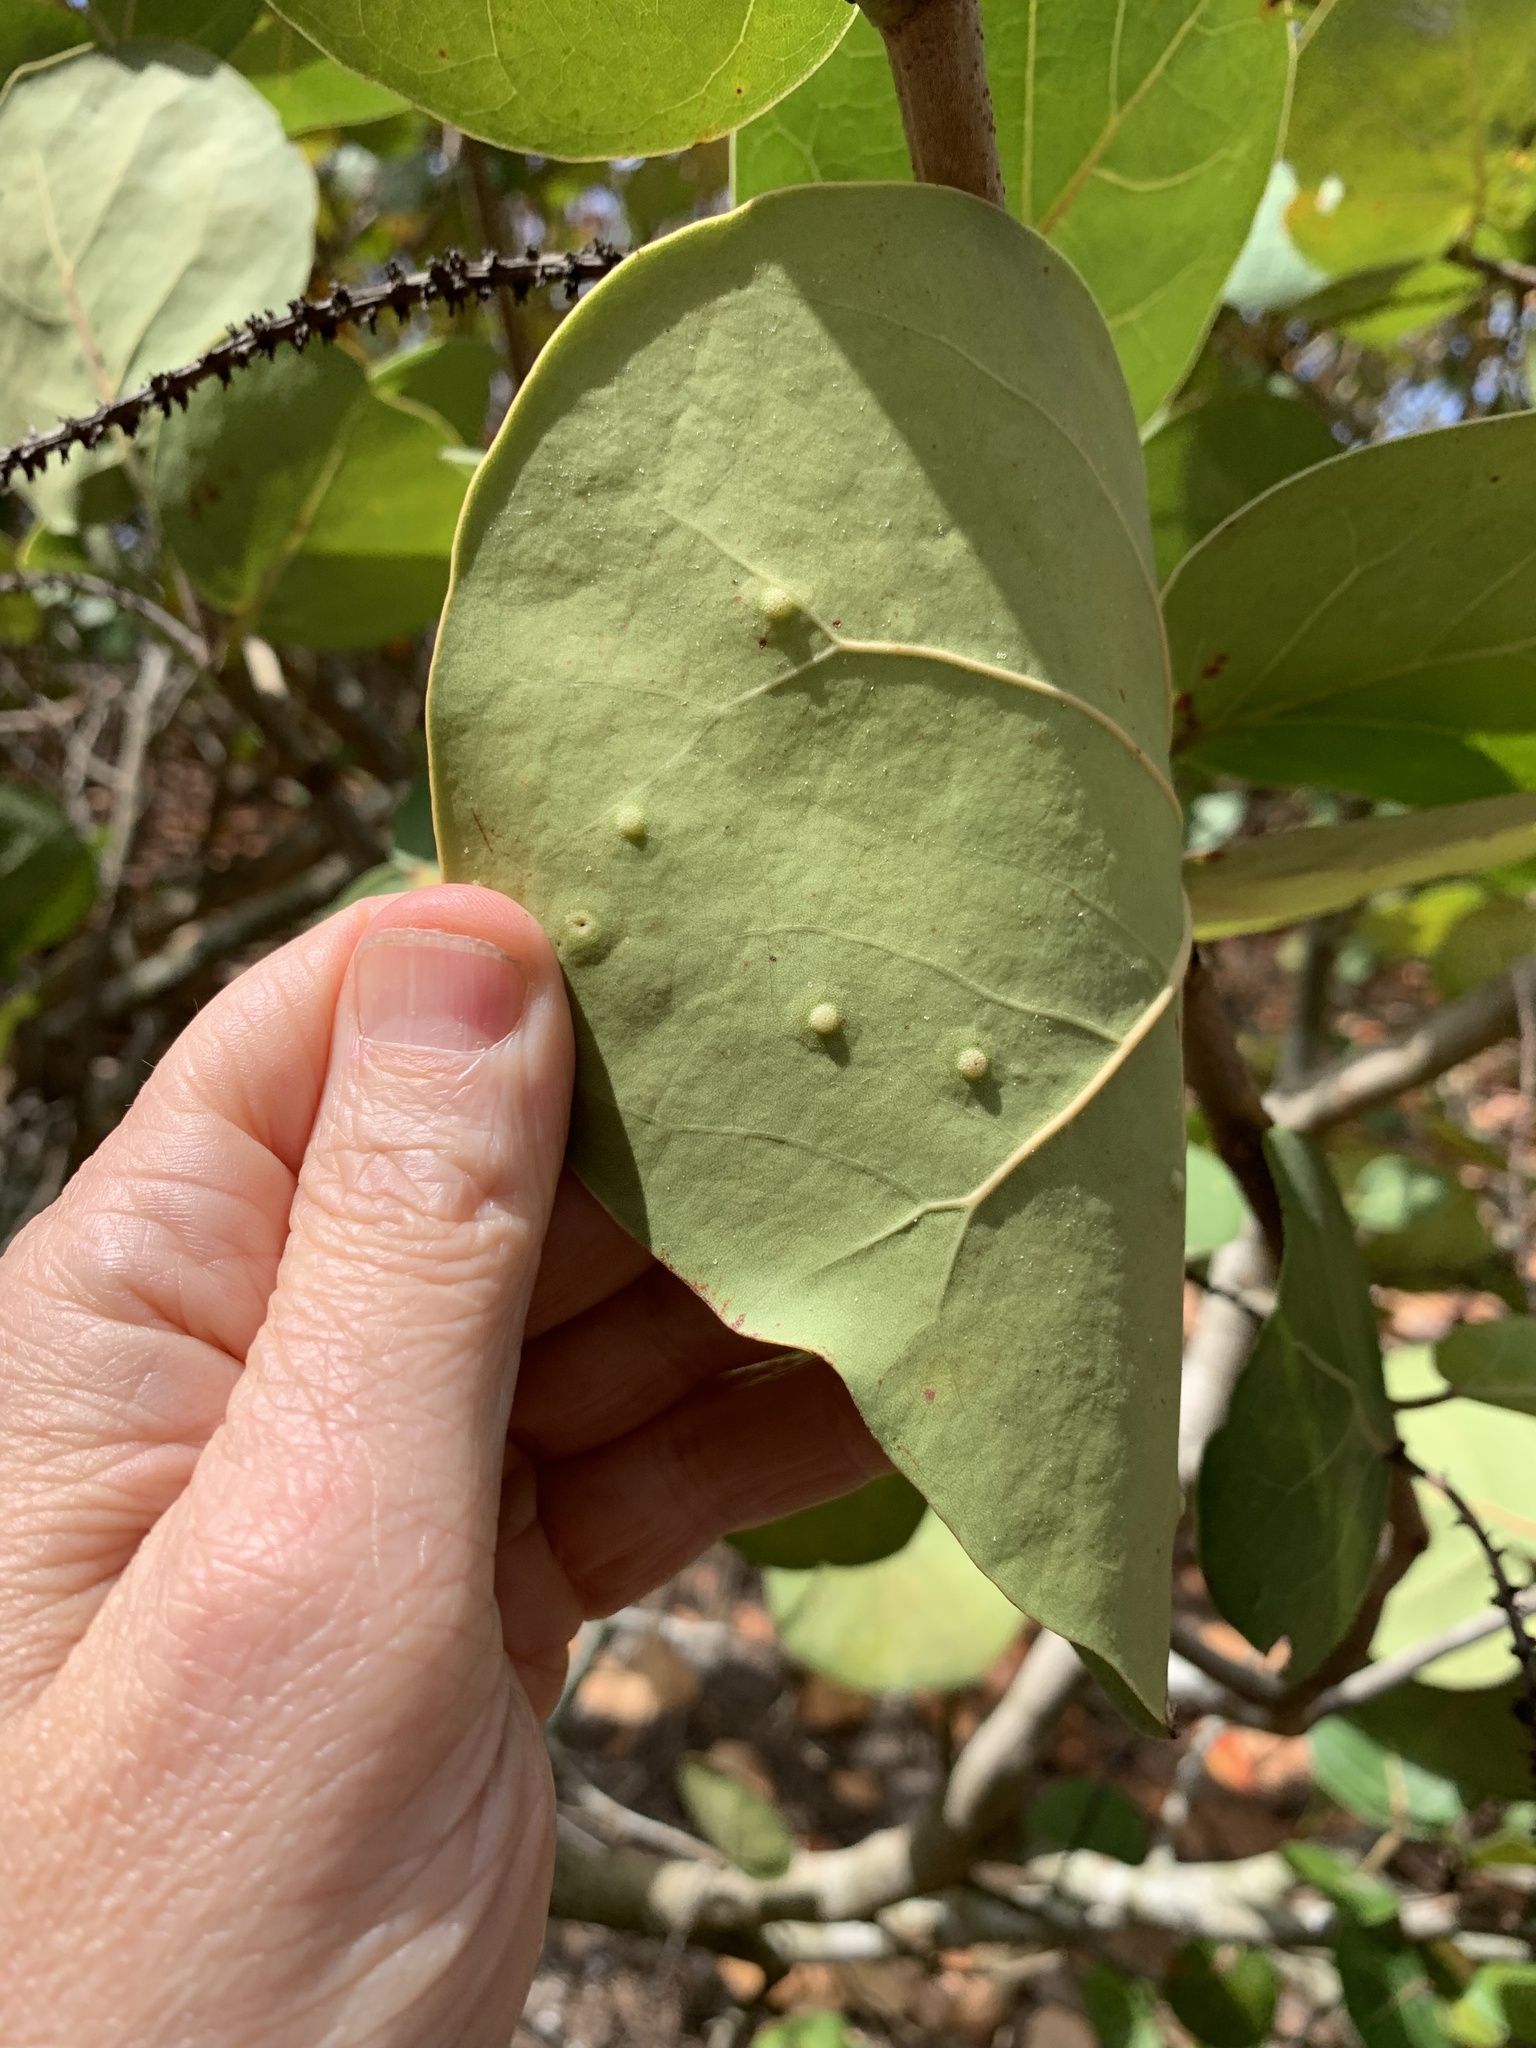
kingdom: Animalia
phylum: Arthropoda
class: Insecta
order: Diptera
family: Cecidomyiidae
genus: Ctenodactylomyia
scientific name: Ctenodactylomyia watsoni
